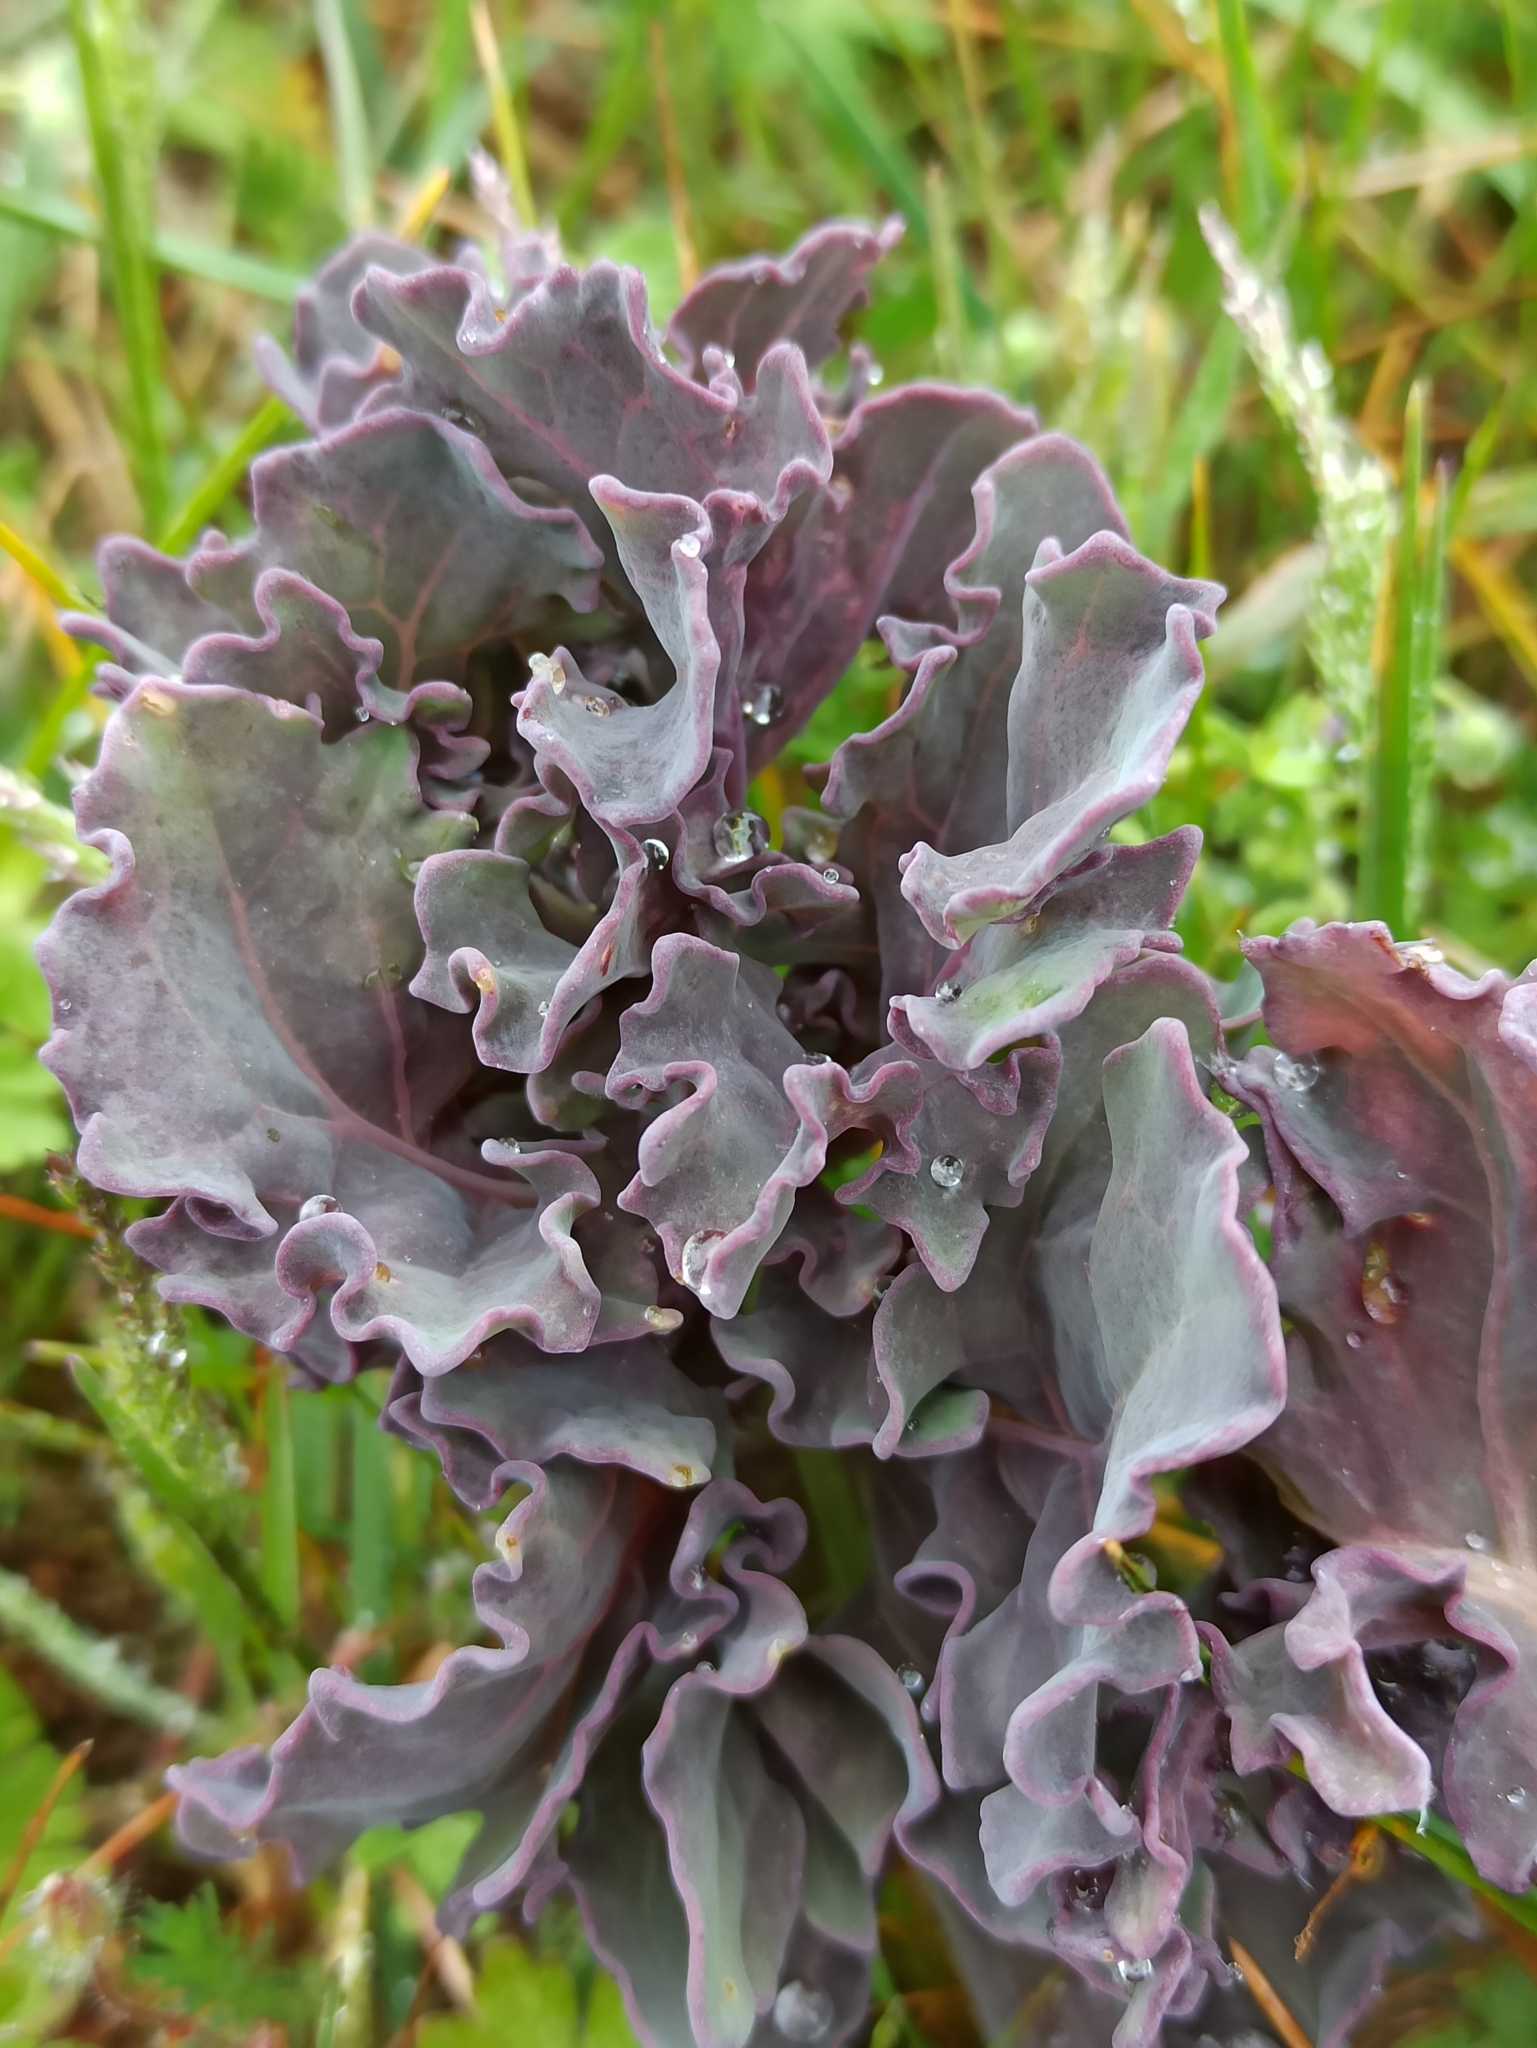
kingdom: Plantae
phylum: Tracheophyta
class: Magnoliopsida
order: Brassicales
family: Brassicaceae
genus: Crambe
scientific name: Crambe maritima
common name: Sea-kale
